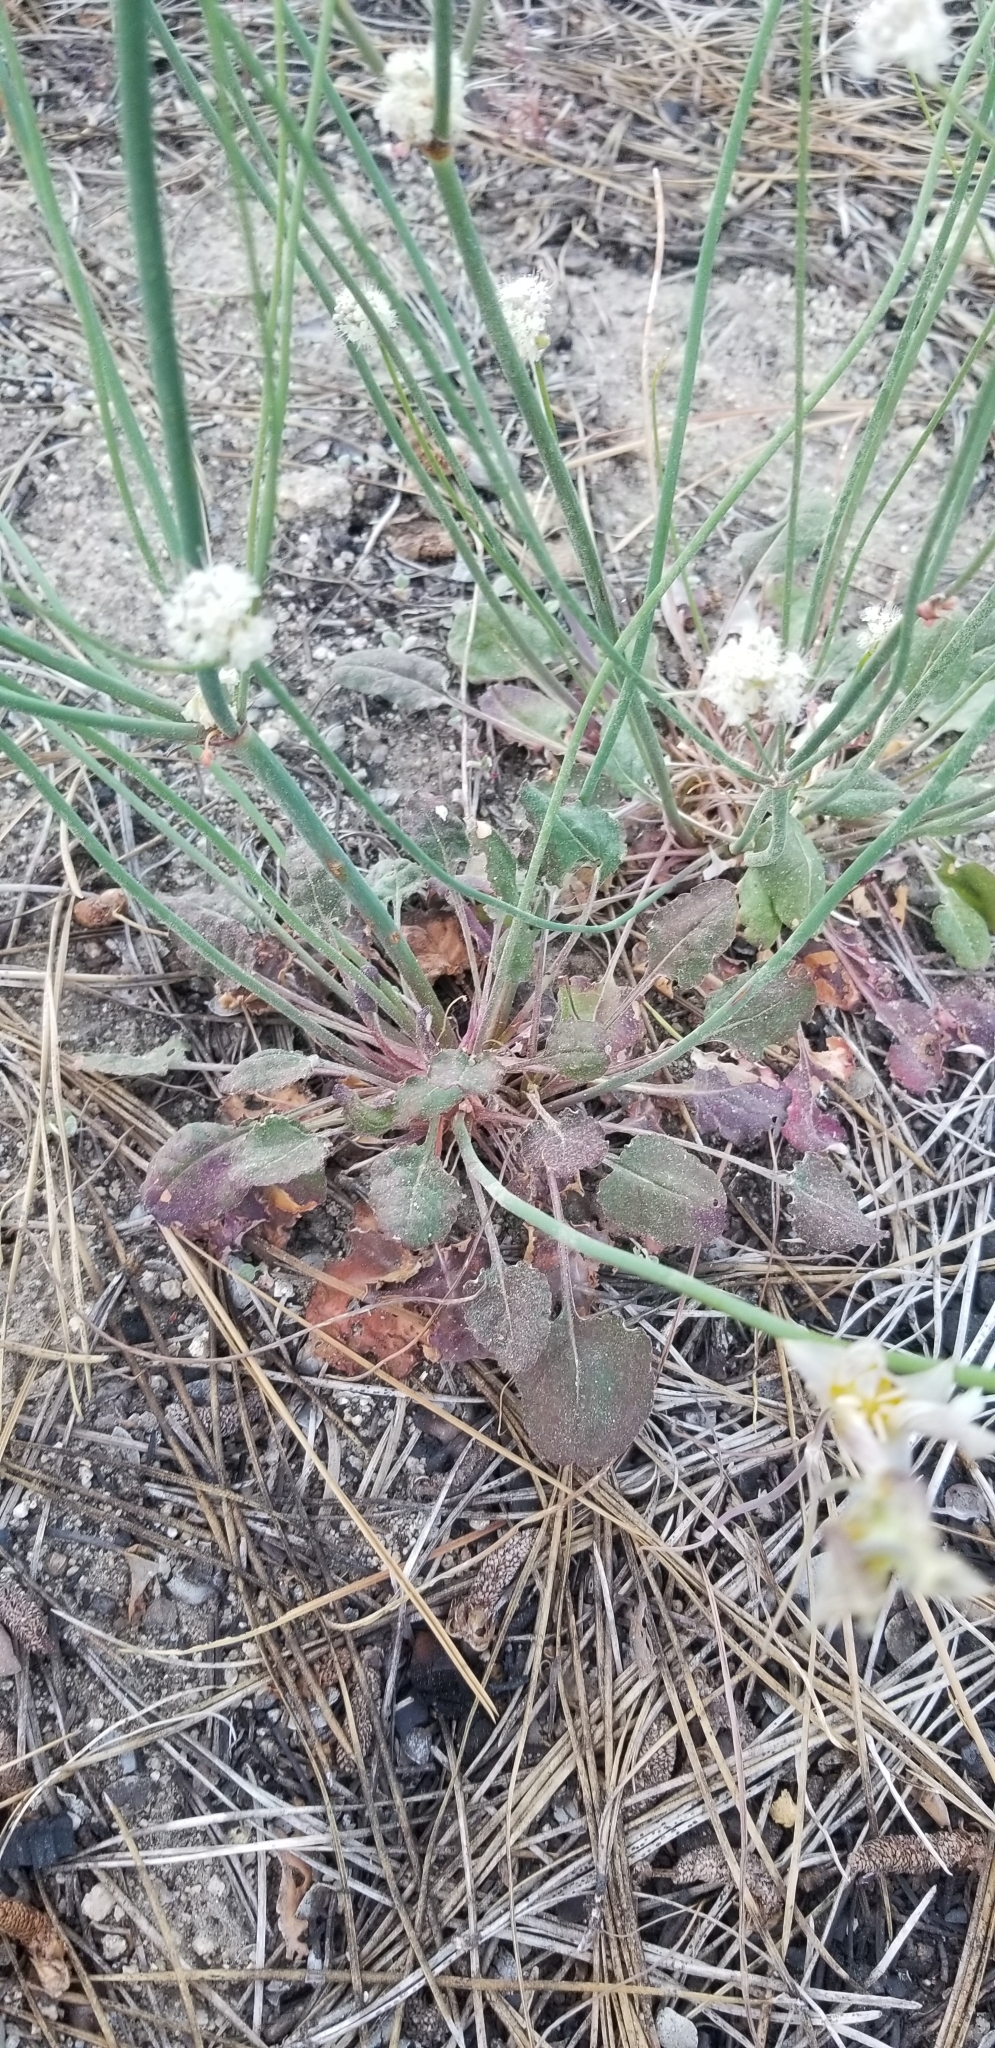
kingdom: Plantae
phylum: Tracheophyta
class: Magnoliopsida
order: Caryophyllales
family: Polygonaceae
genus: Eriogonum
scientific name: Eriogonum nudum
